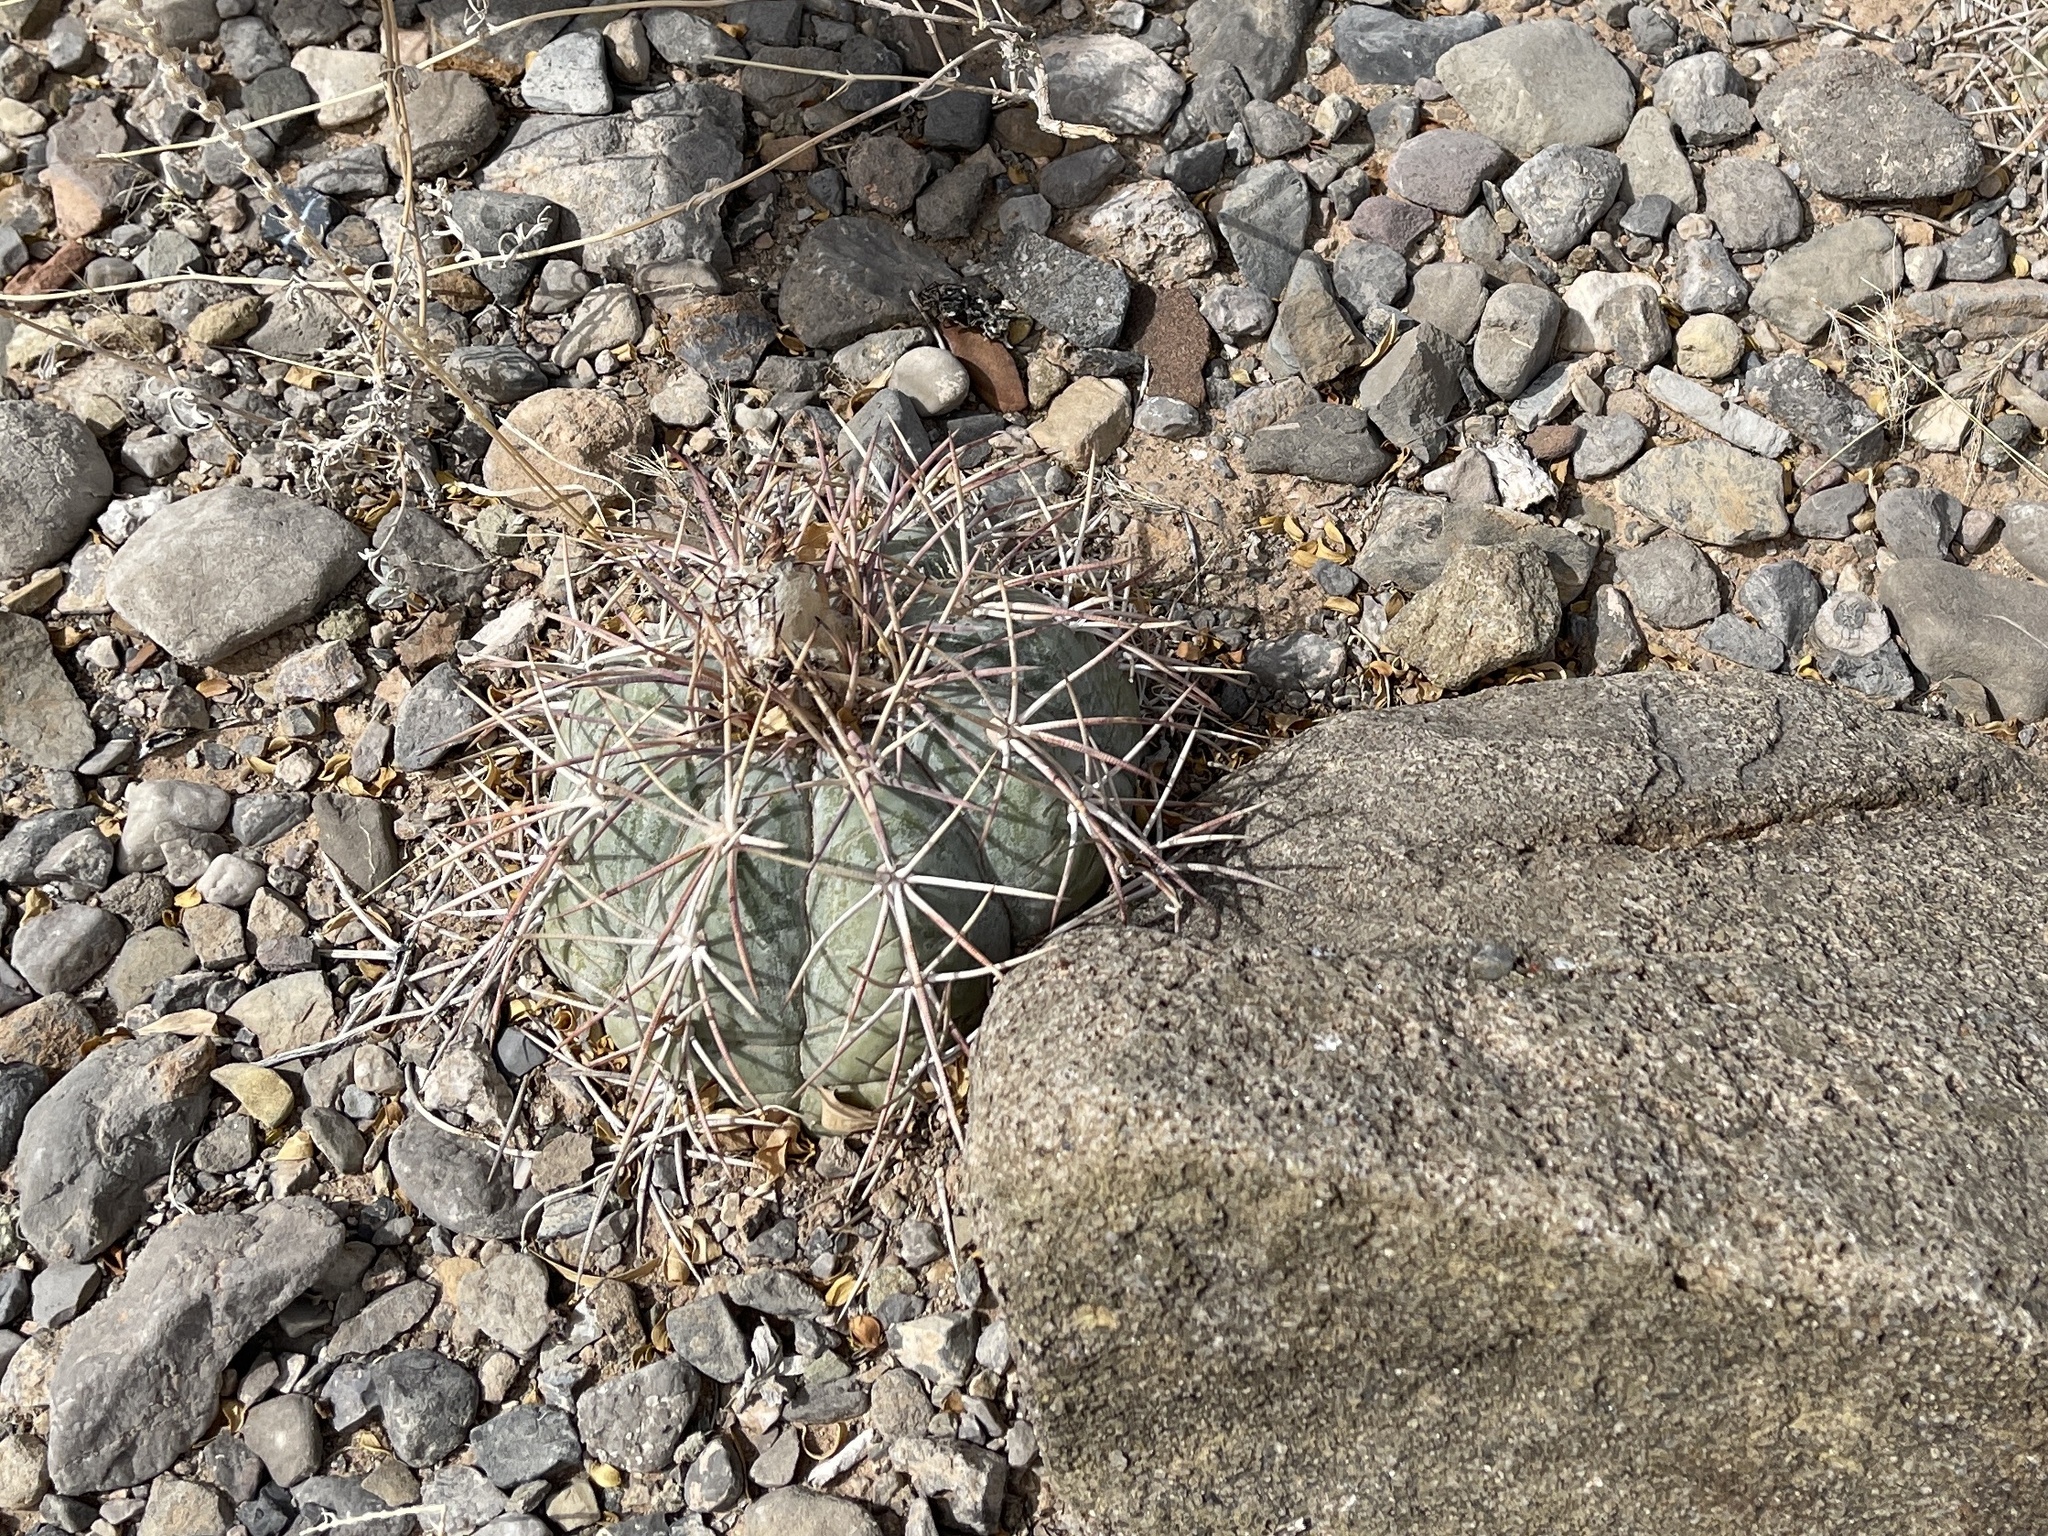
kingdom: Plantae
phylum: Tracheophyta
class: Magnoliopsida
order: Caryophyllales
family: Cactaceae
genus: Echinocactus
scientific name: Echinocactus horizonthalonius
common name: Devilshead
